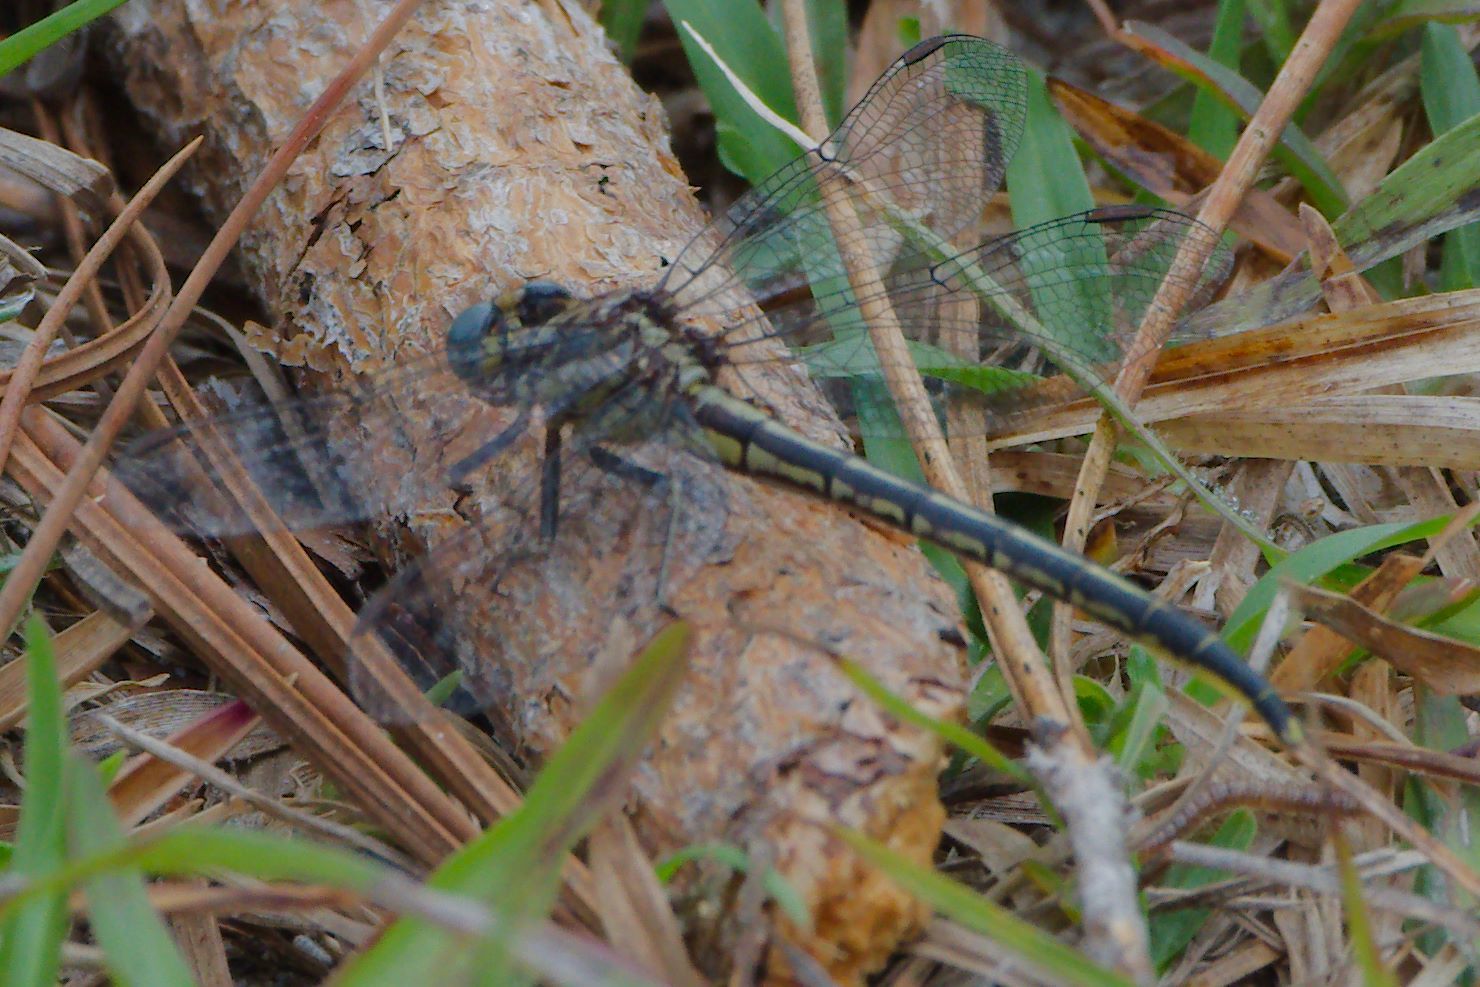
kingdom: Animalia
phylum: Arthropoda
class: Insecta
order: Odonata
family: Gomphidae
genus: Phanogomphus
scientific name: Phanogomphus westfalli
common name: Westfall’s clubtail
